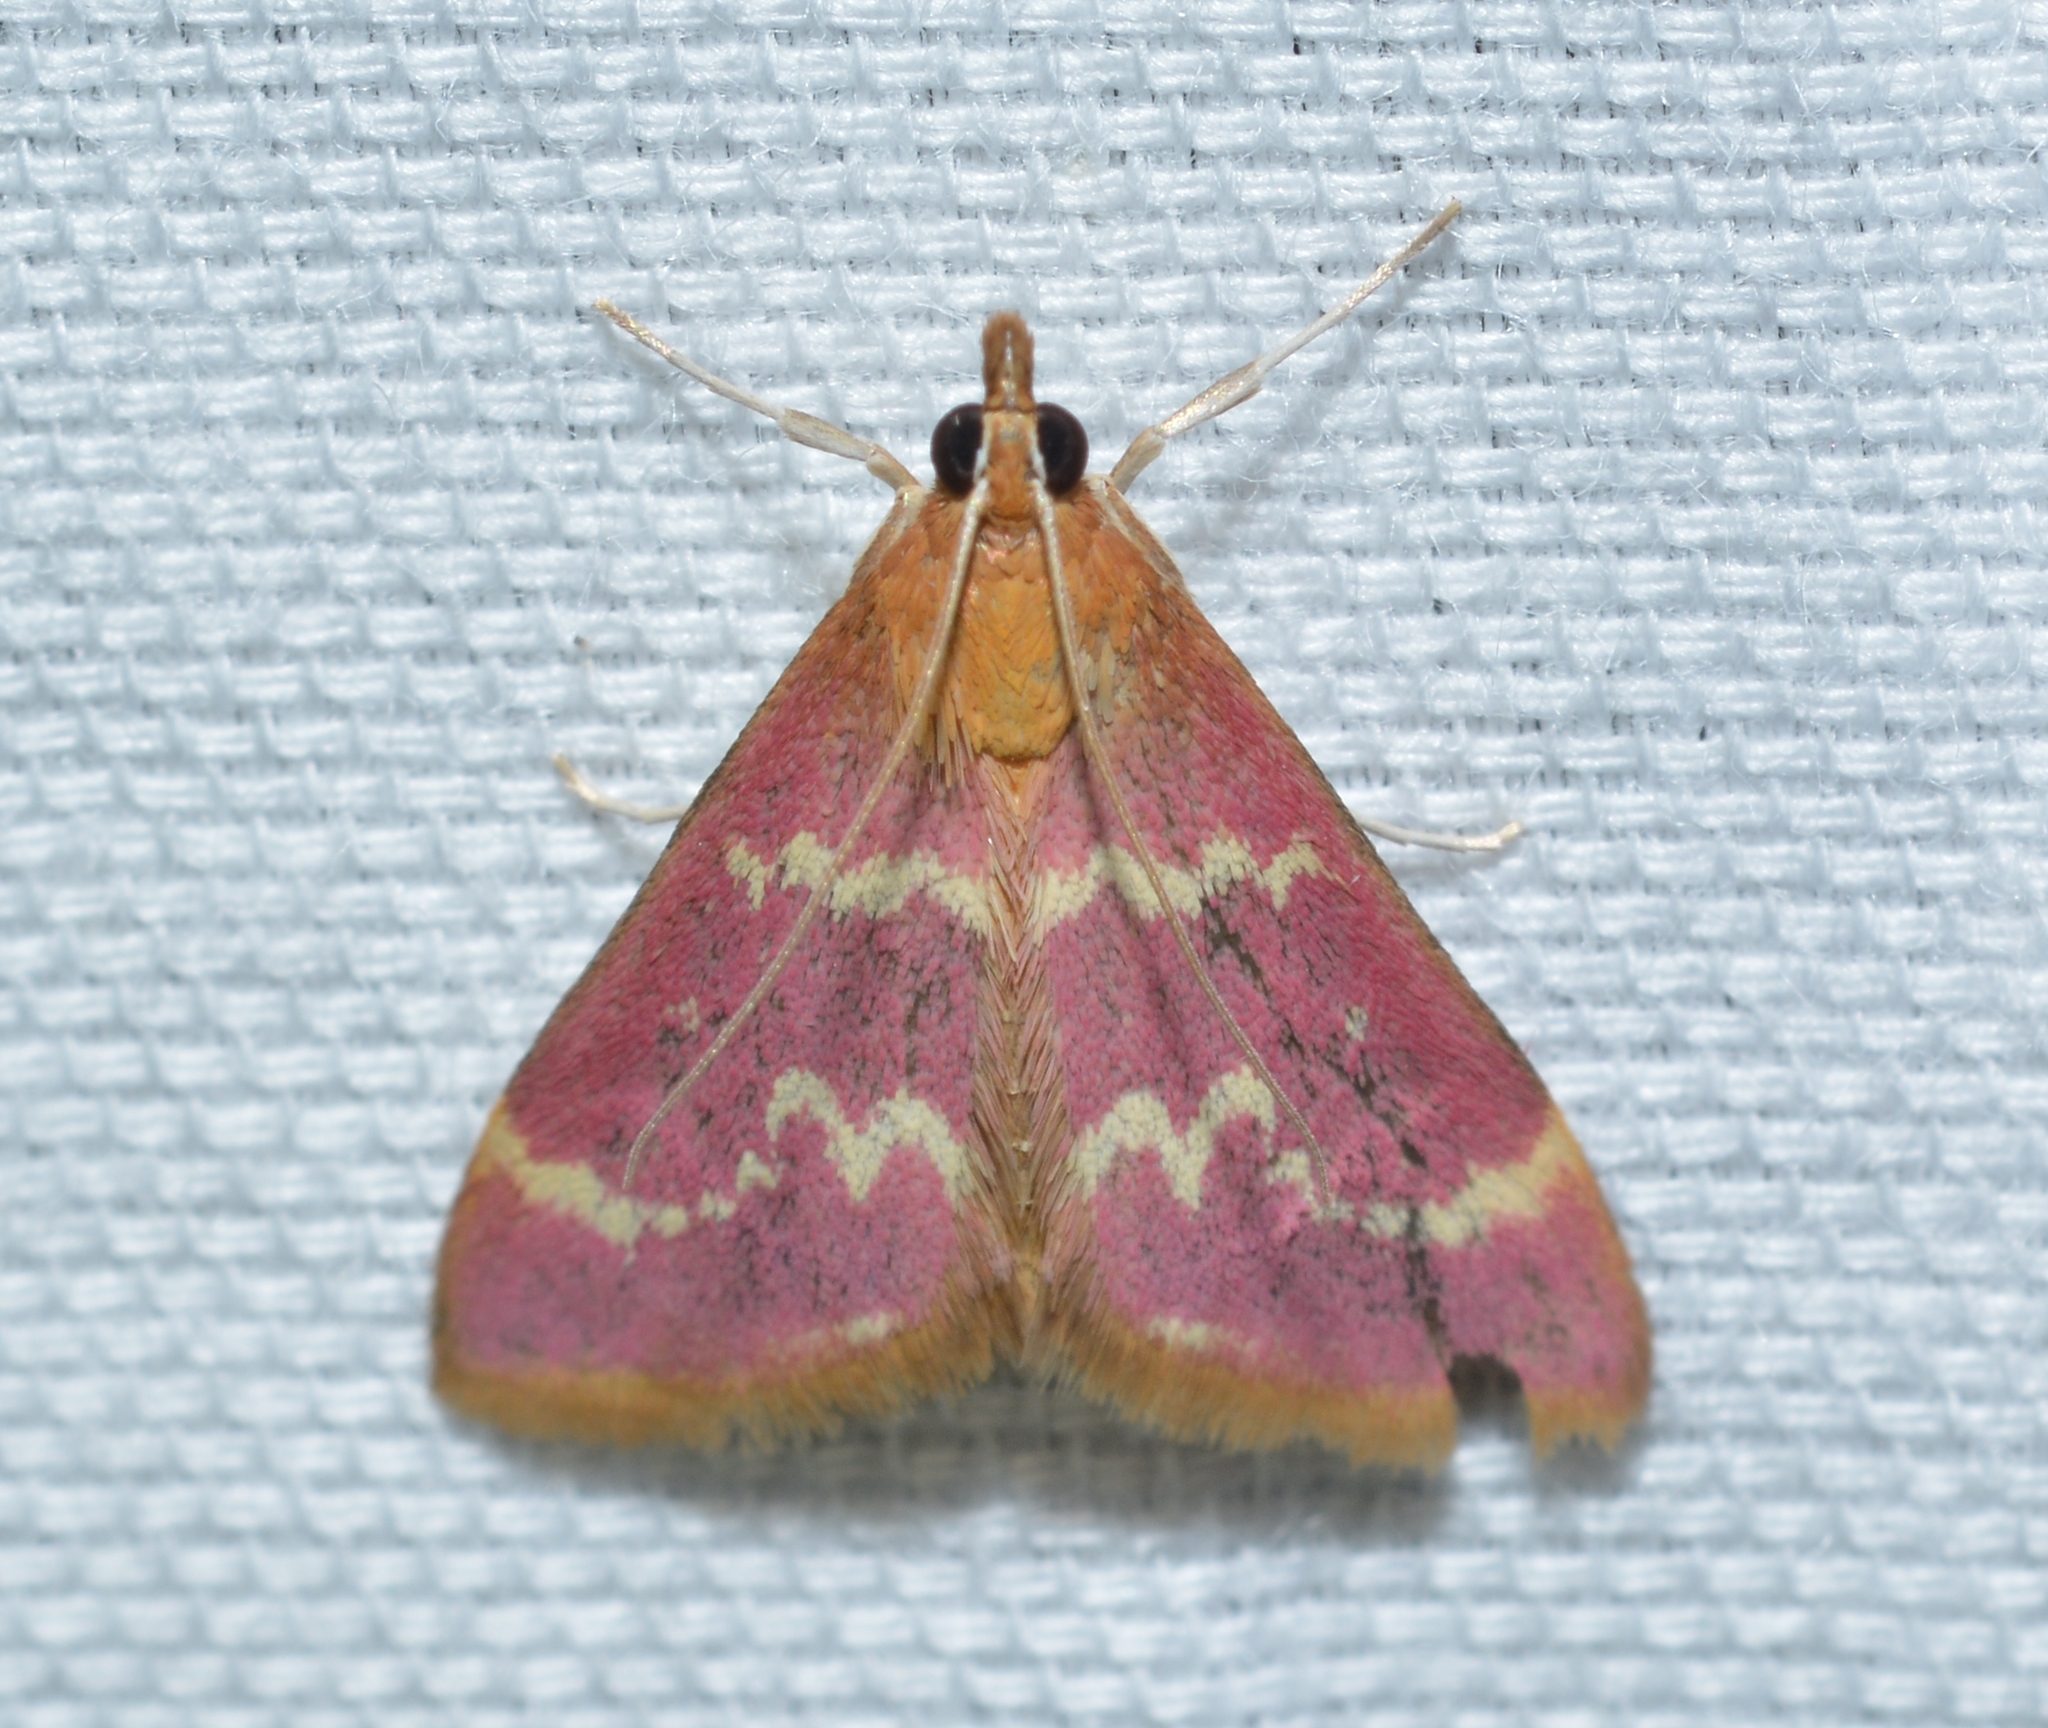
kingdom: Animalia
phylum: Arthropoda
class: Insecta
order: Lepidoptera
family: Crambidae
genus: Pyrausta
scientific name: Pyrausta signatalis
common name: Raspberry pyrausta moth
